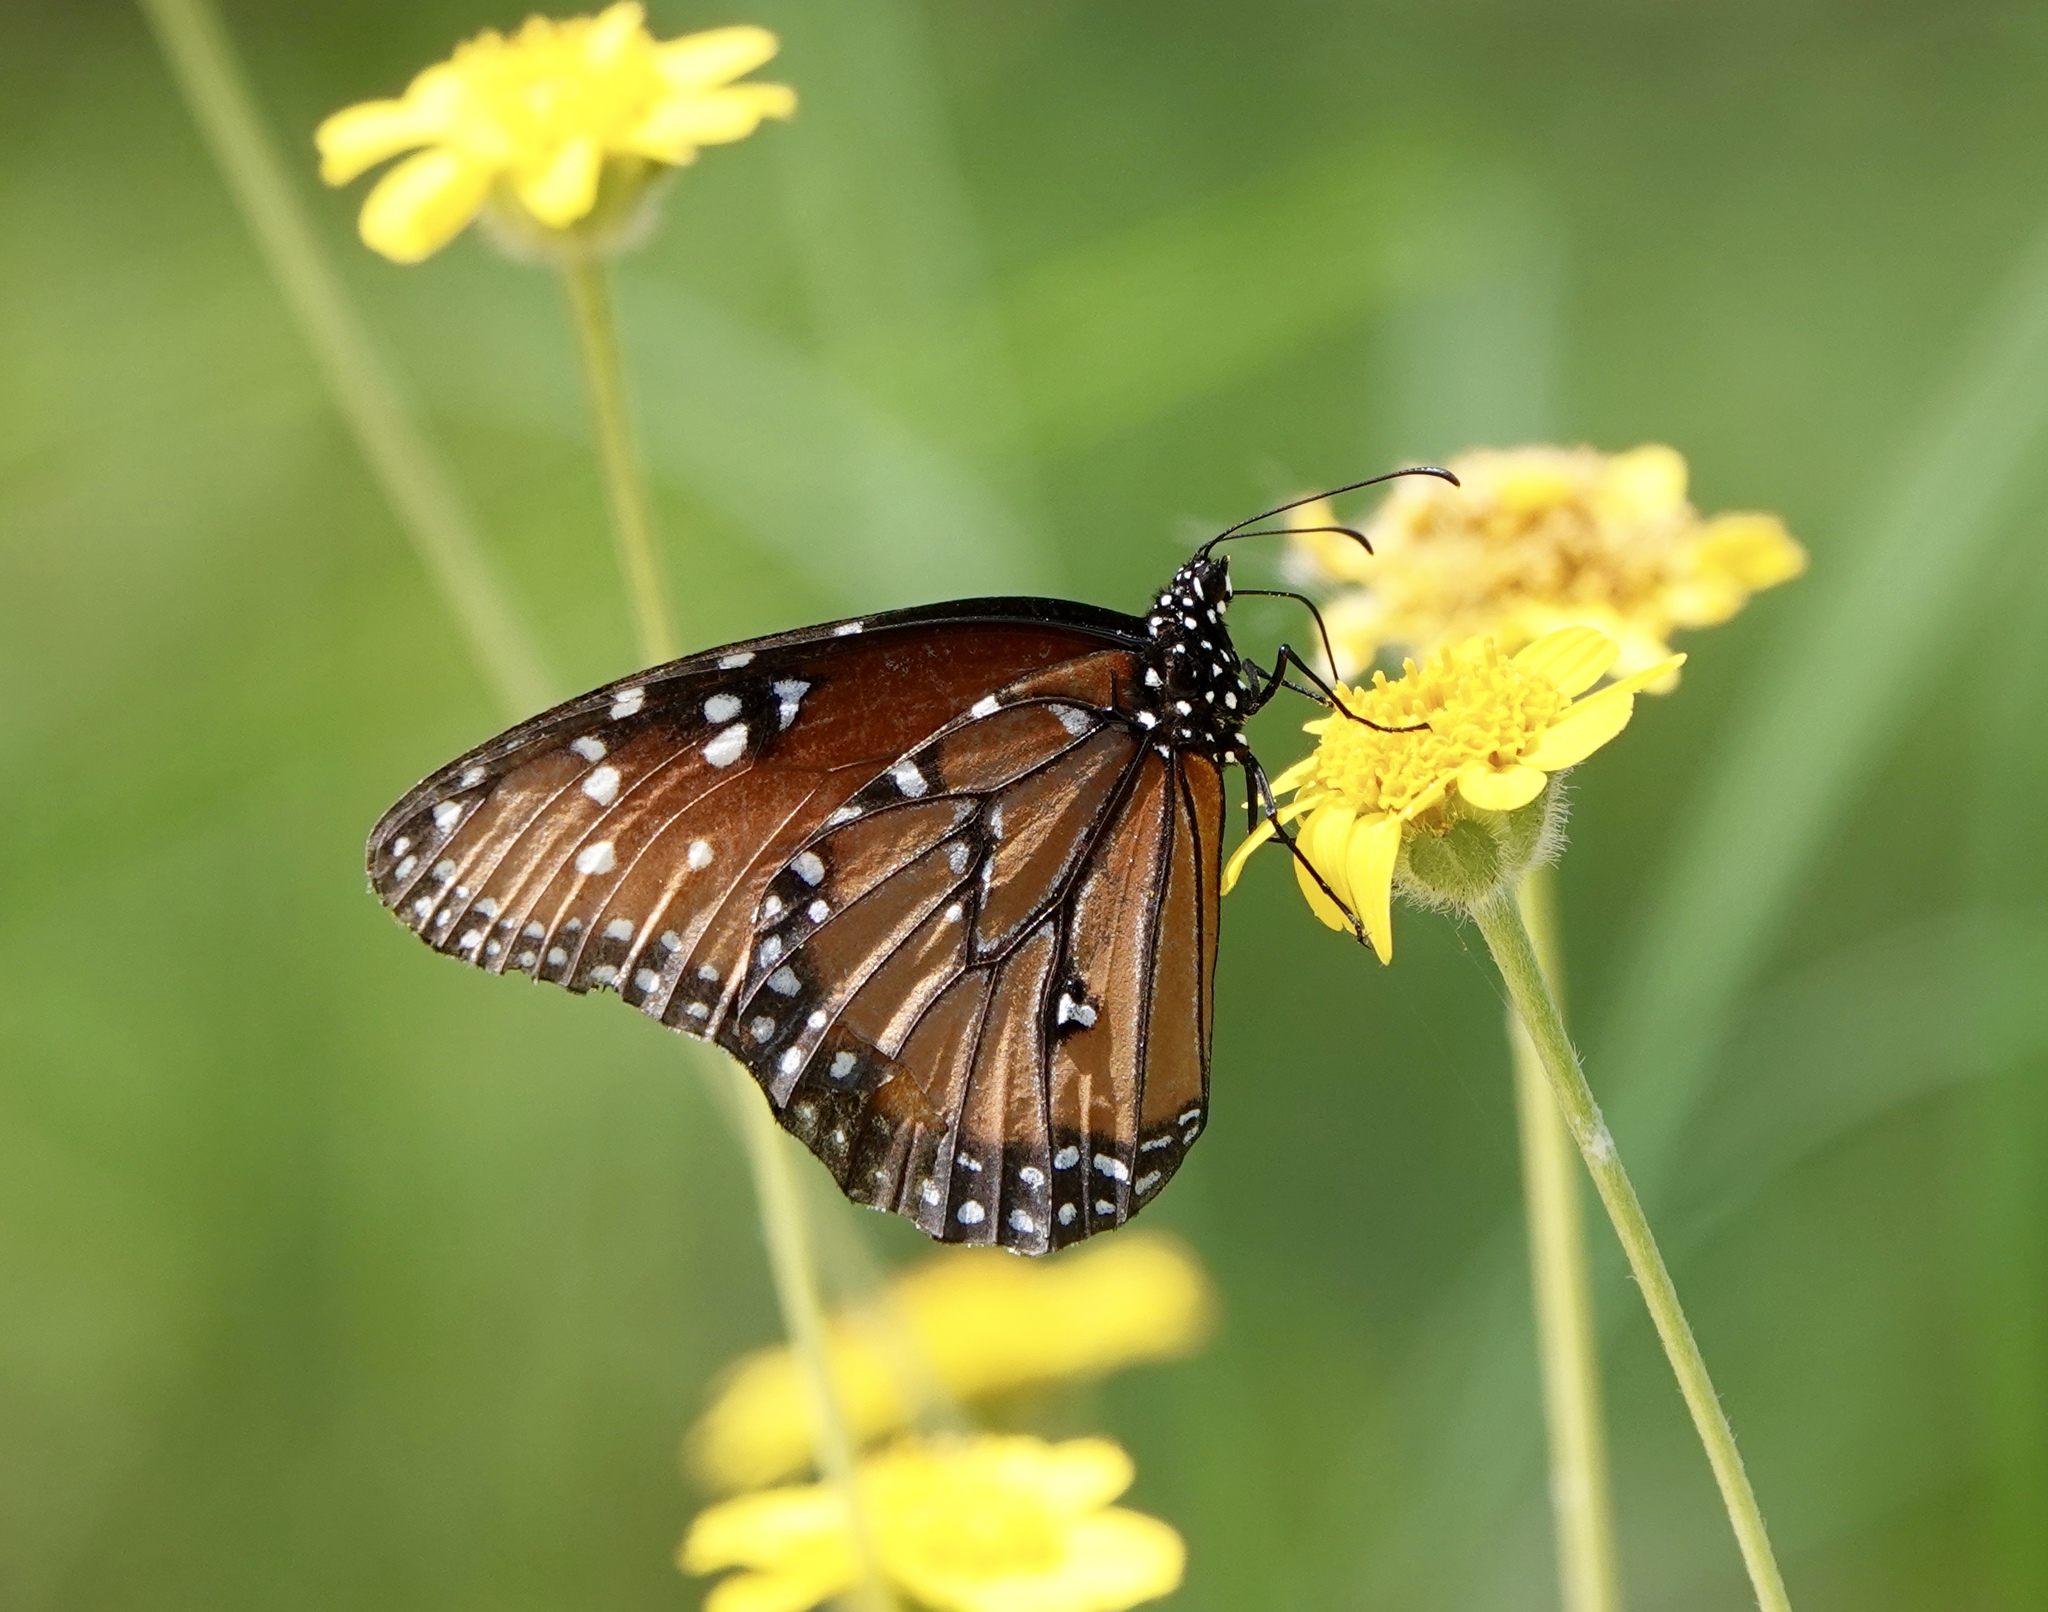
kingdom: Animalia
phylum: Arthropoda
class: Insecta
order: Lepidoptera
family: Nymphalidae
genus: Danaus
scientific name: Danaus gilippus
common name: Queen
